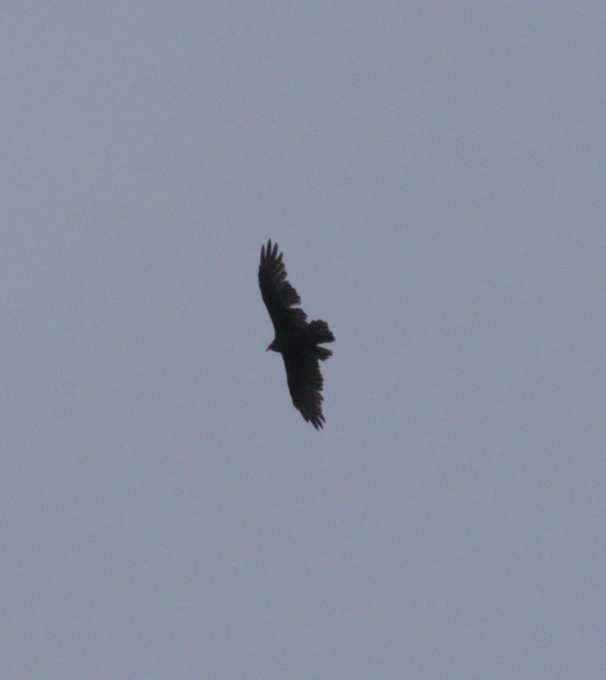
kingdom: Animalia
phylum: Chordata
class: Aves
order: Accipitriformes
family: Cathartidae
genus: Cathartes
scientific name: Cathartes aura
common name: Turkey vulture
